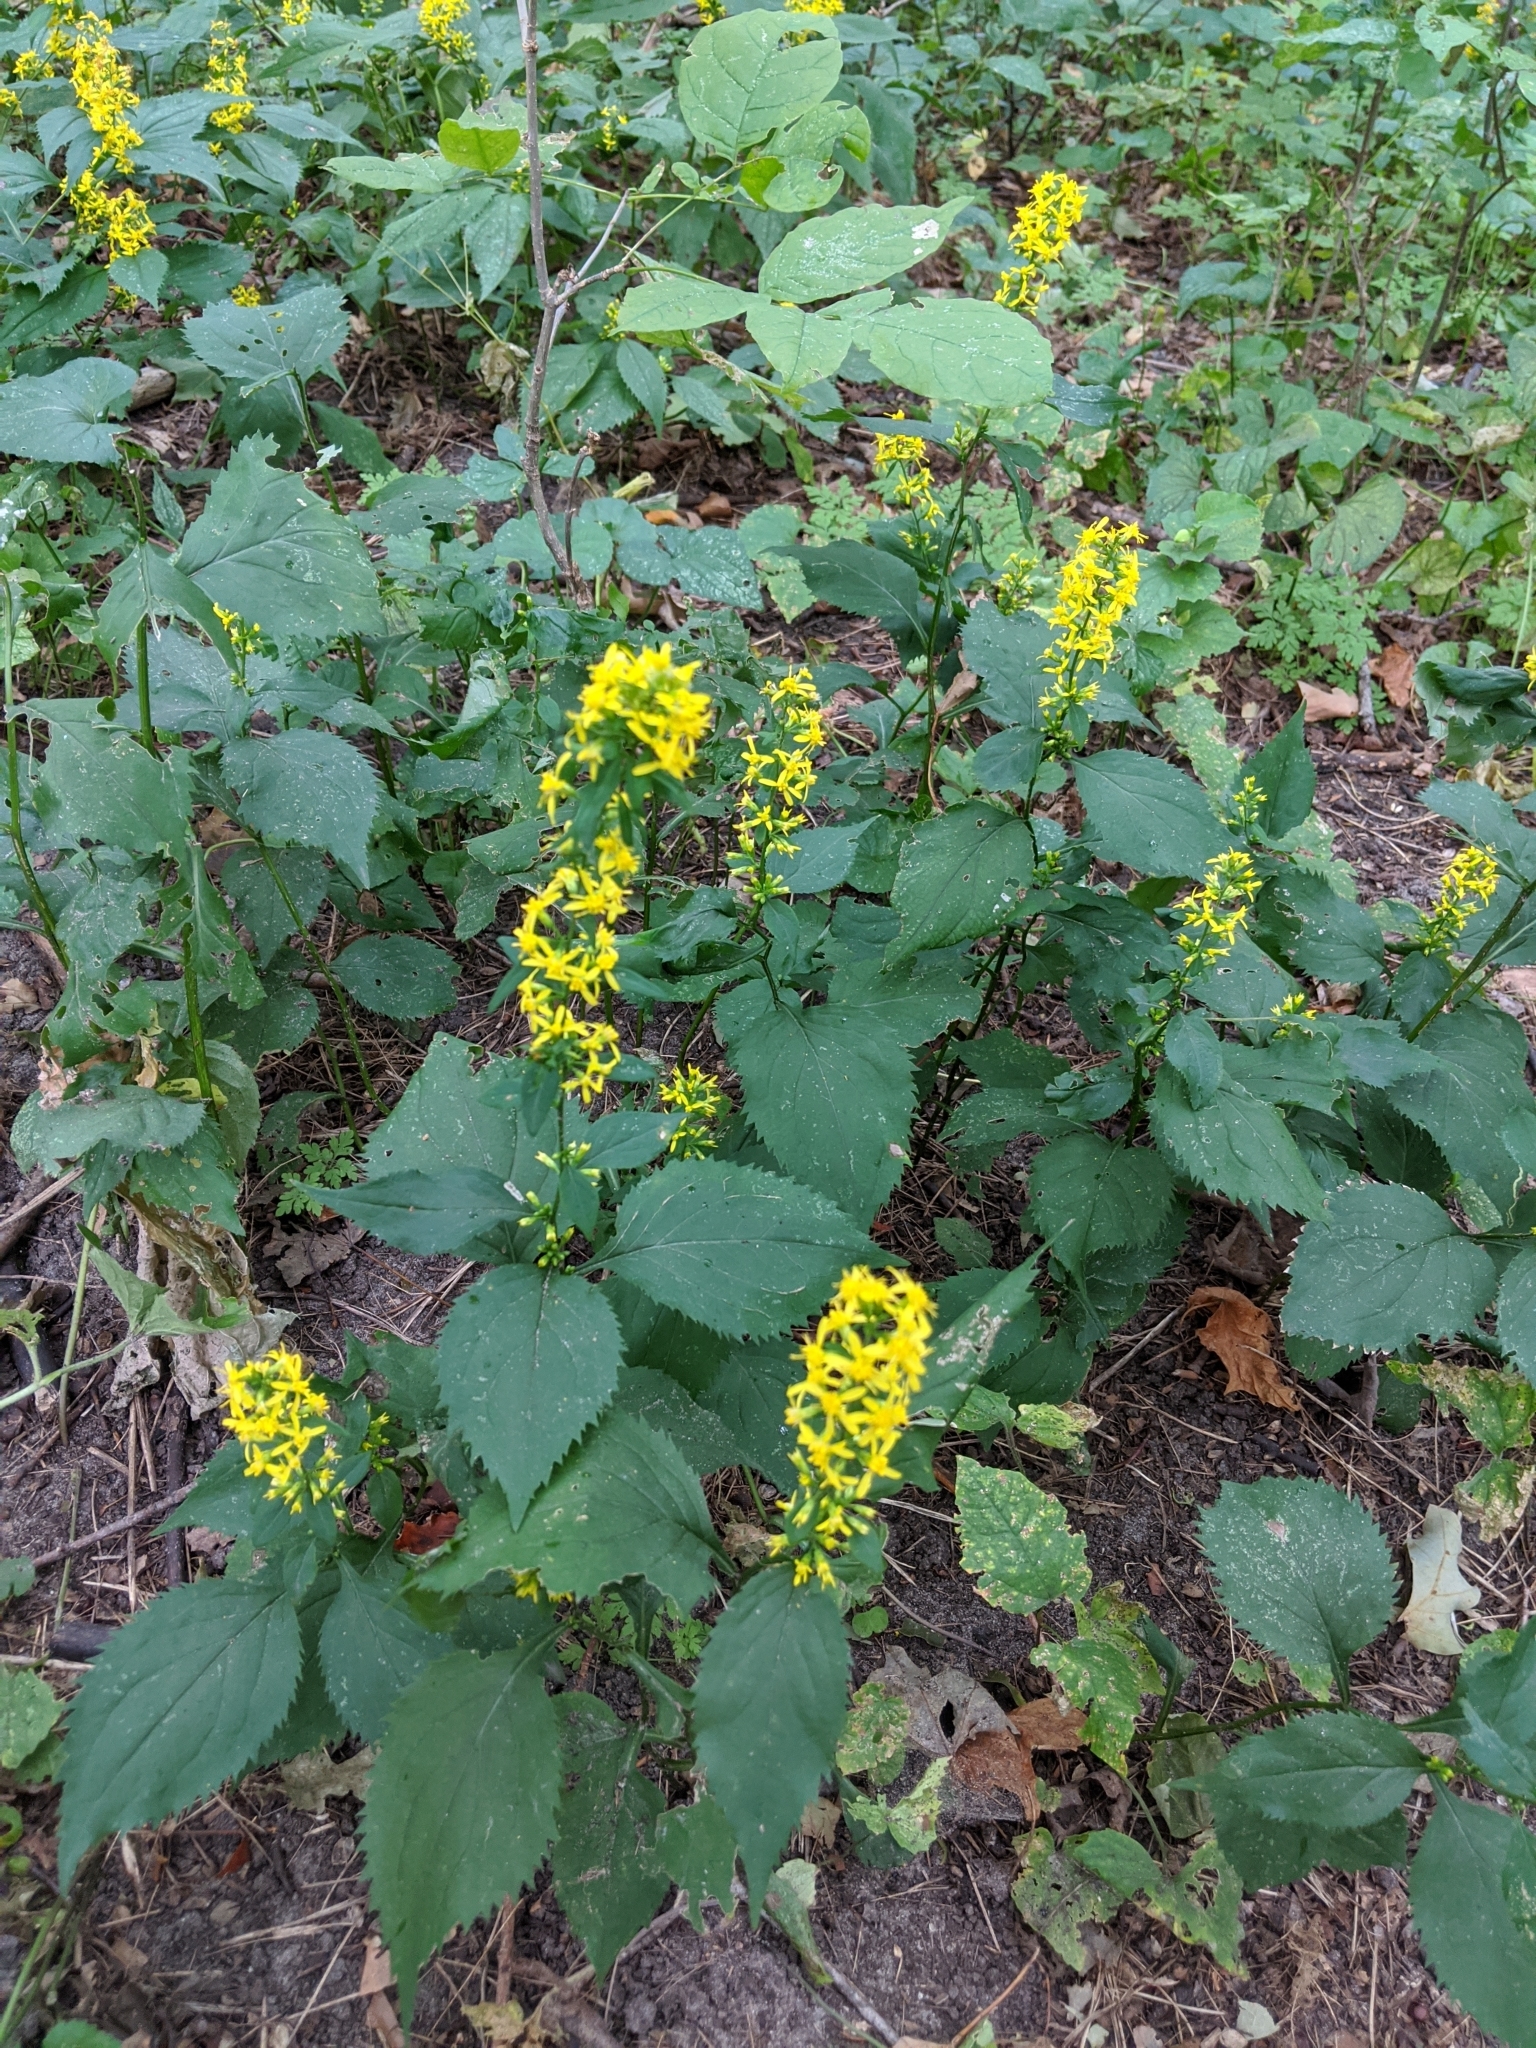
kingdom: Plantae
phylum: Tracheophyta
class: Magnoliopsida
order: Asterales
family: Asteraceae
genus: Solidago
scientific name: Solidago flexicaulis
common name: Zig-zag goldenrod
